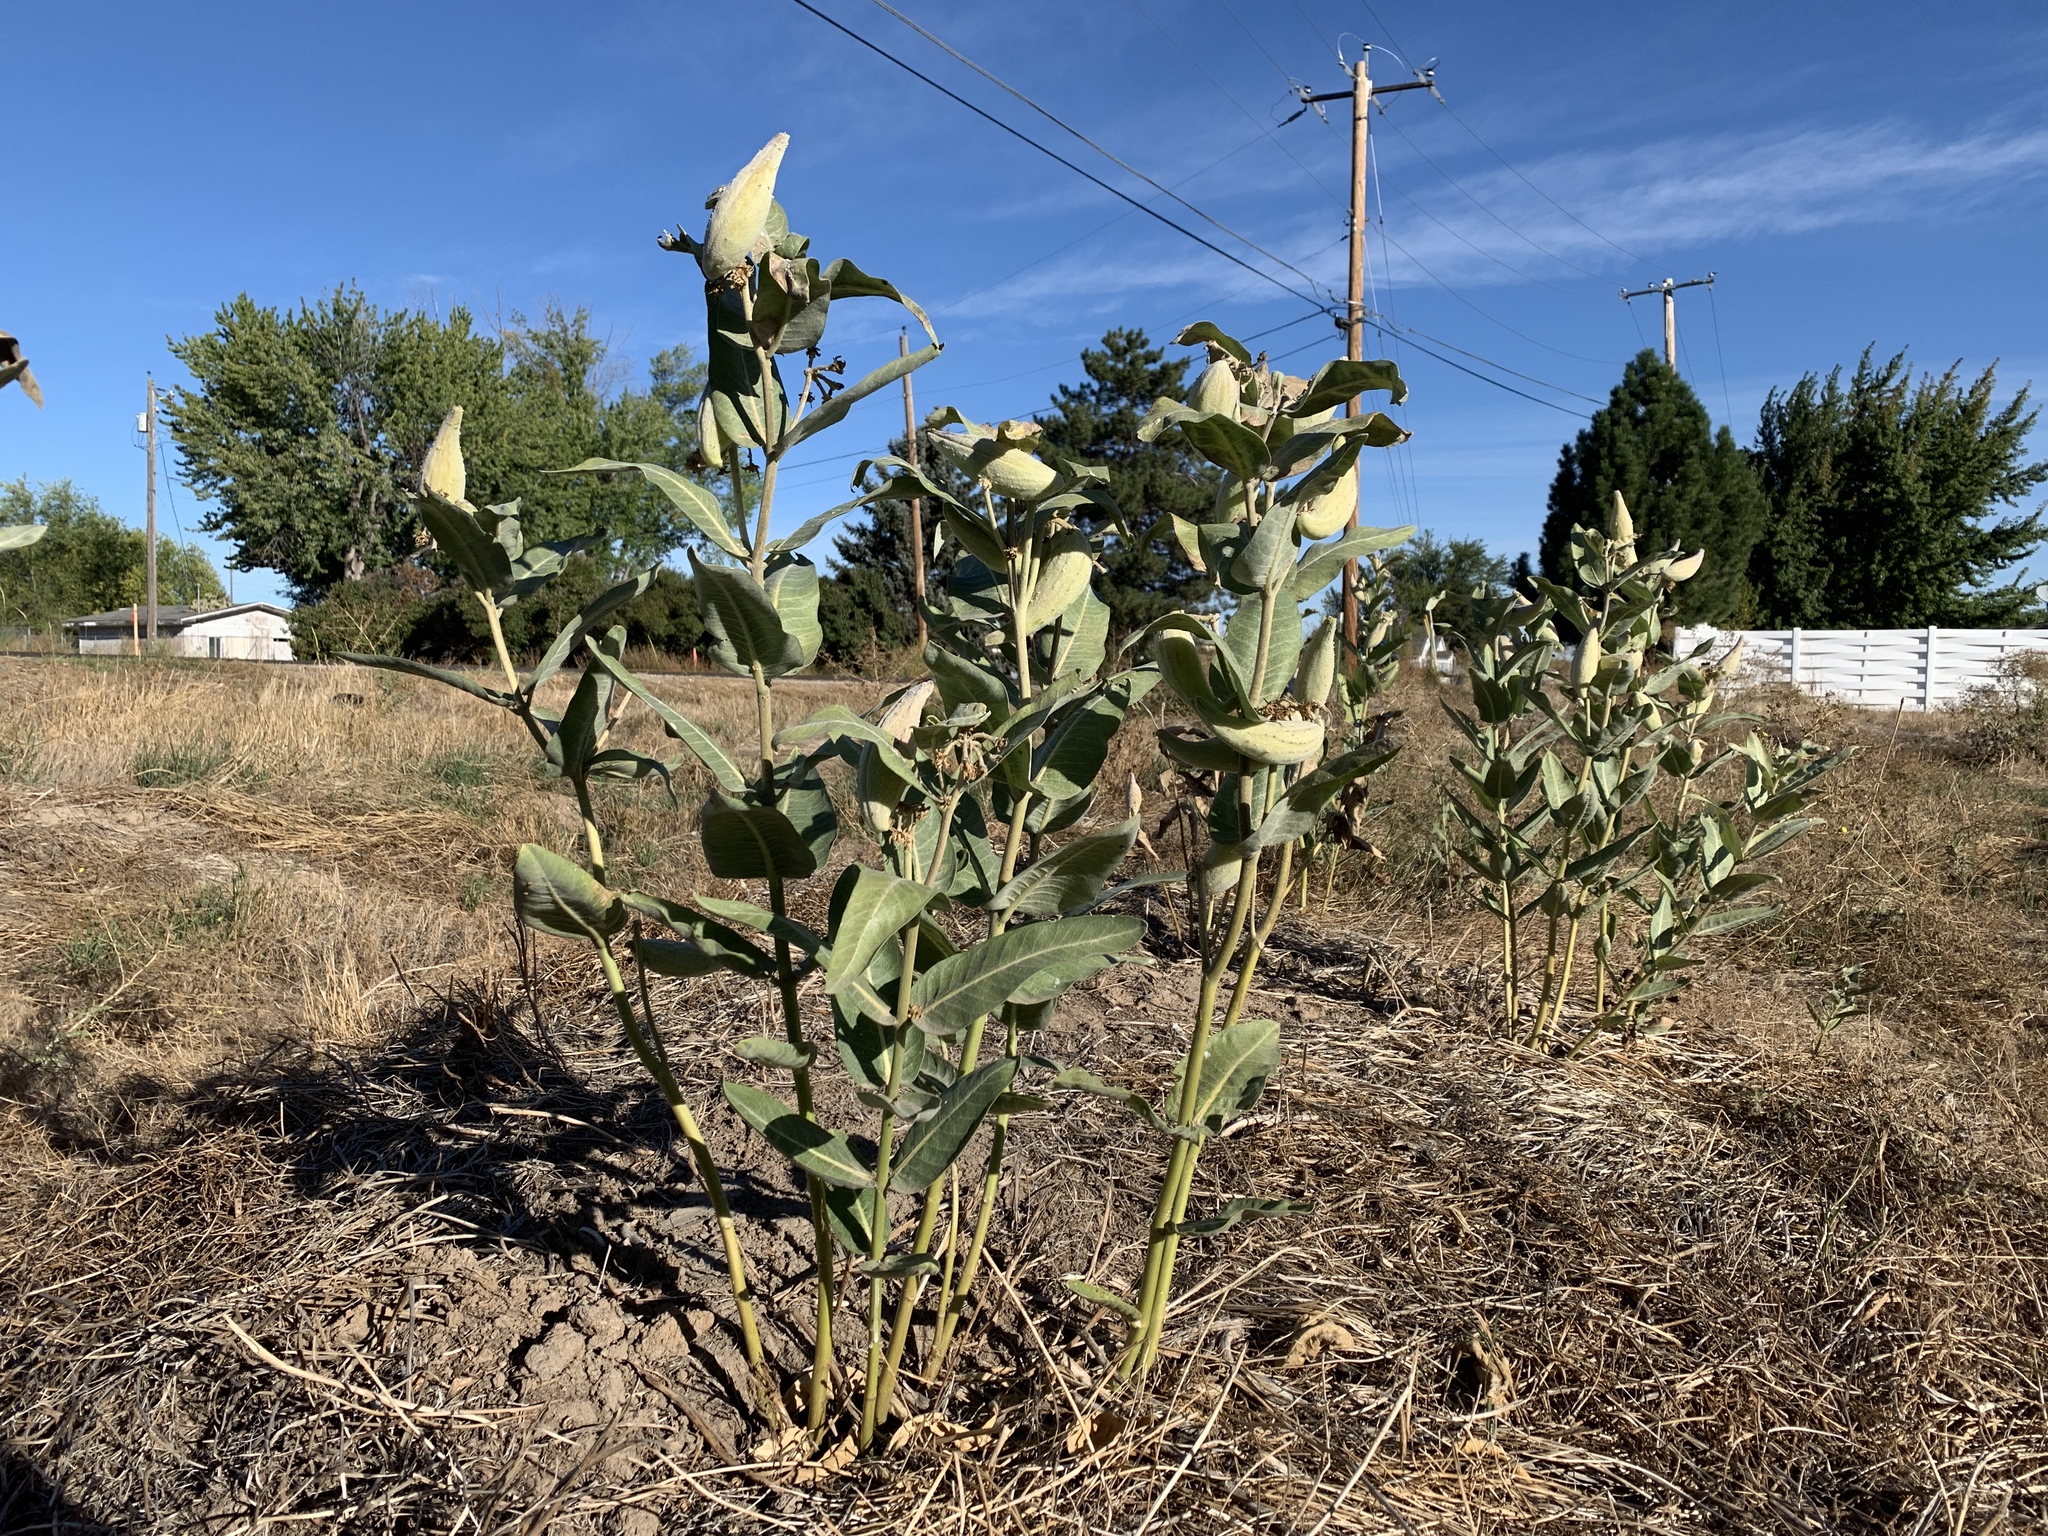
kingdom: Plantae
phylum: Tracheophyta
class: Magnoliopsida
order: Gentianales
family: Apocynaceae
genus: Asclepias
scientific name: Asclepias speciosa
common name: Showy milkweed
